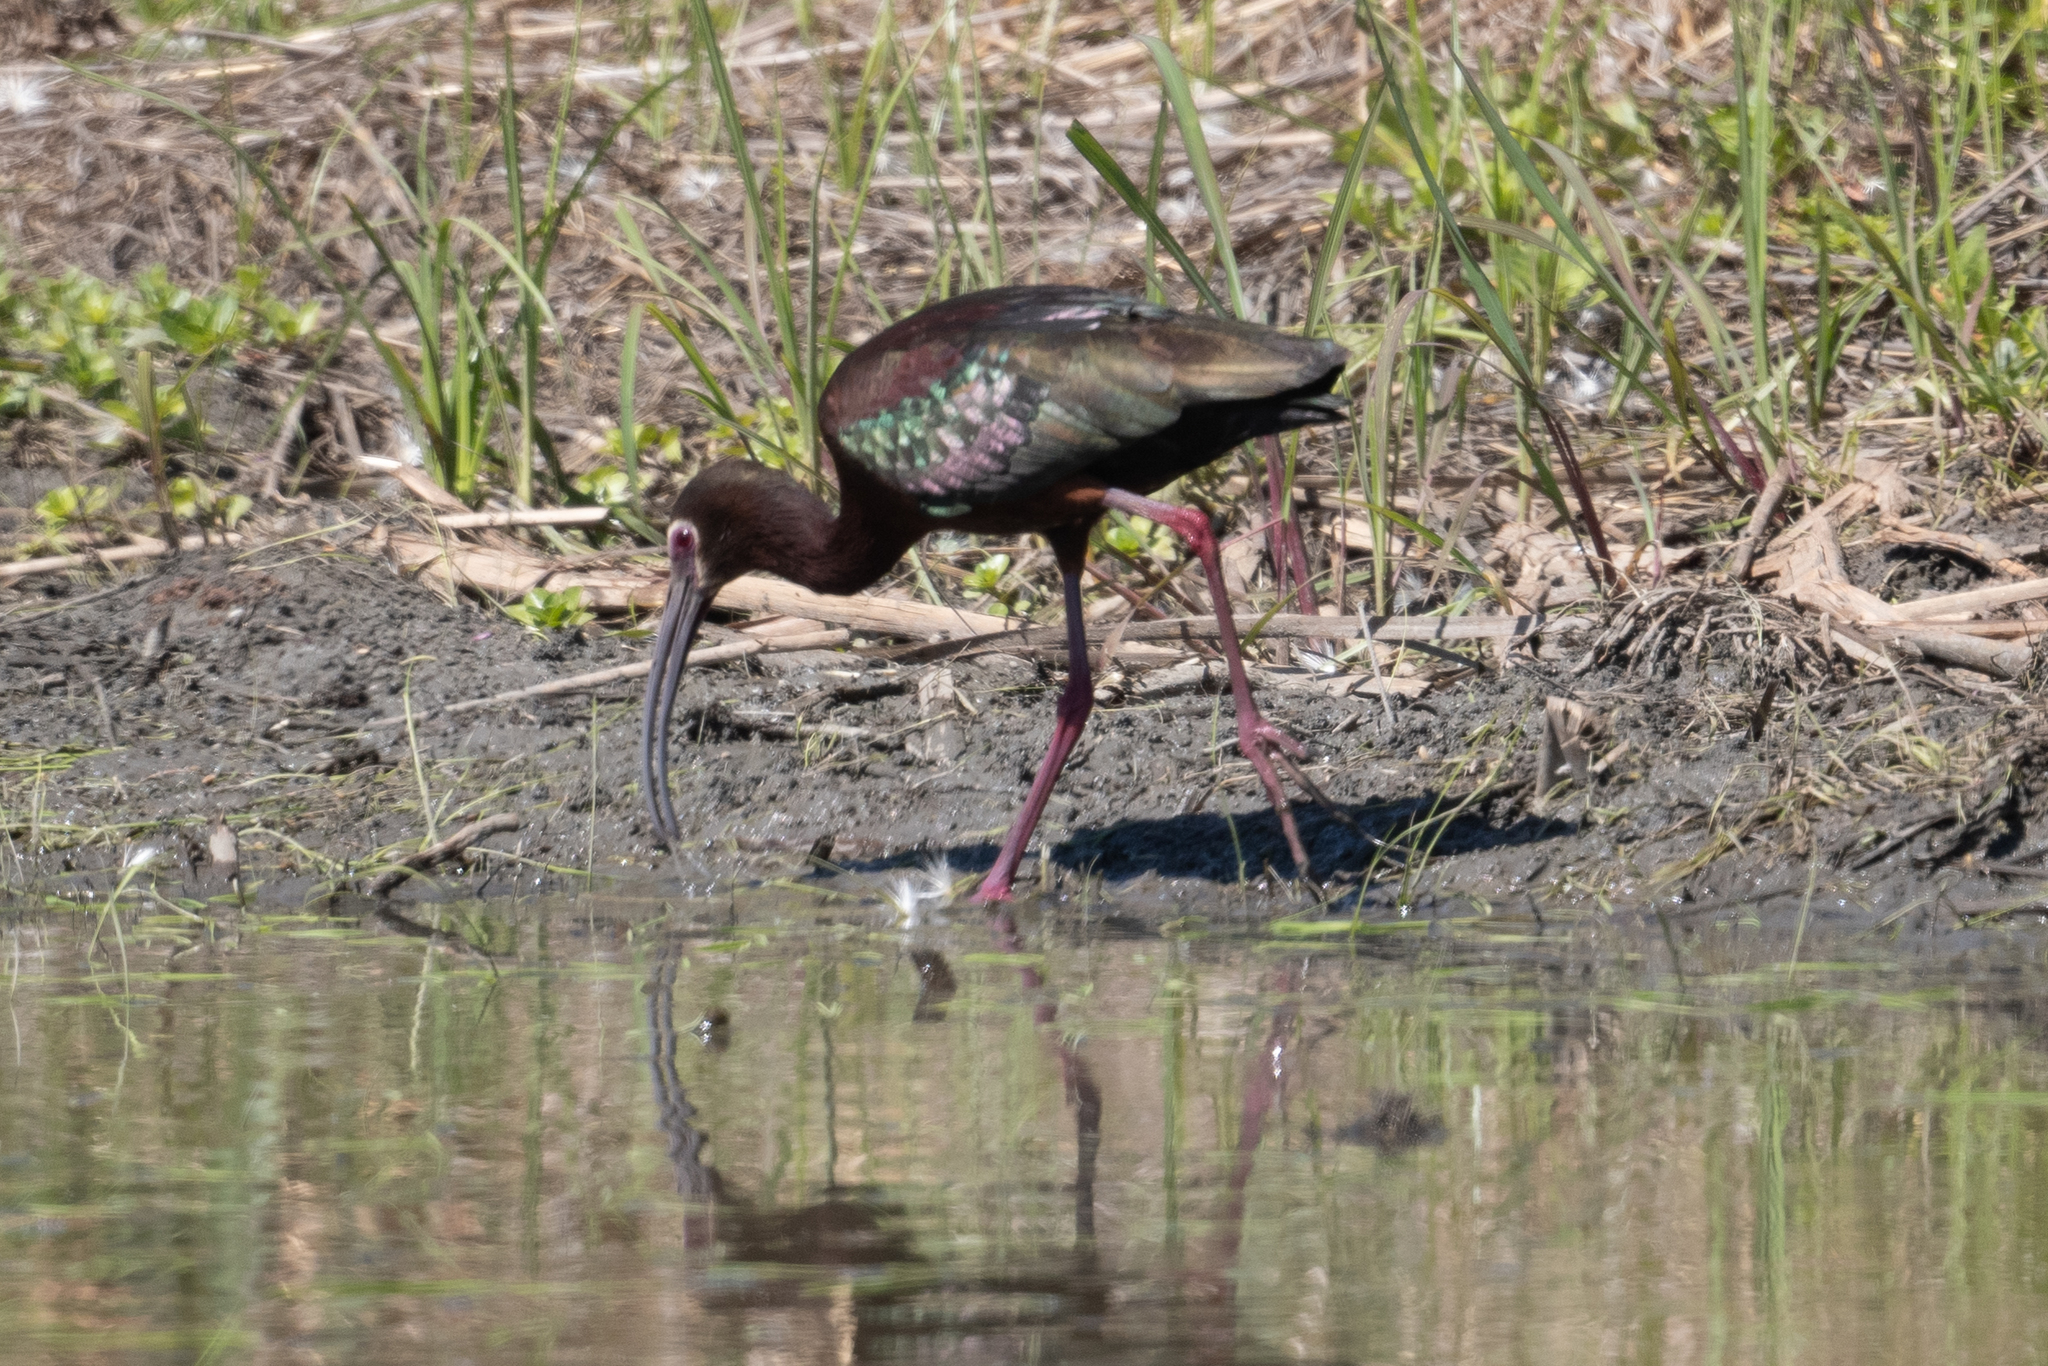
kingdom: Animalia
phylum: Chordata
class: Aves
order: Pelecaniformes
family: Threskiornithidae
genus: Plegadis
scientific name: Plegadis chihi
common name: White-faced ibis
